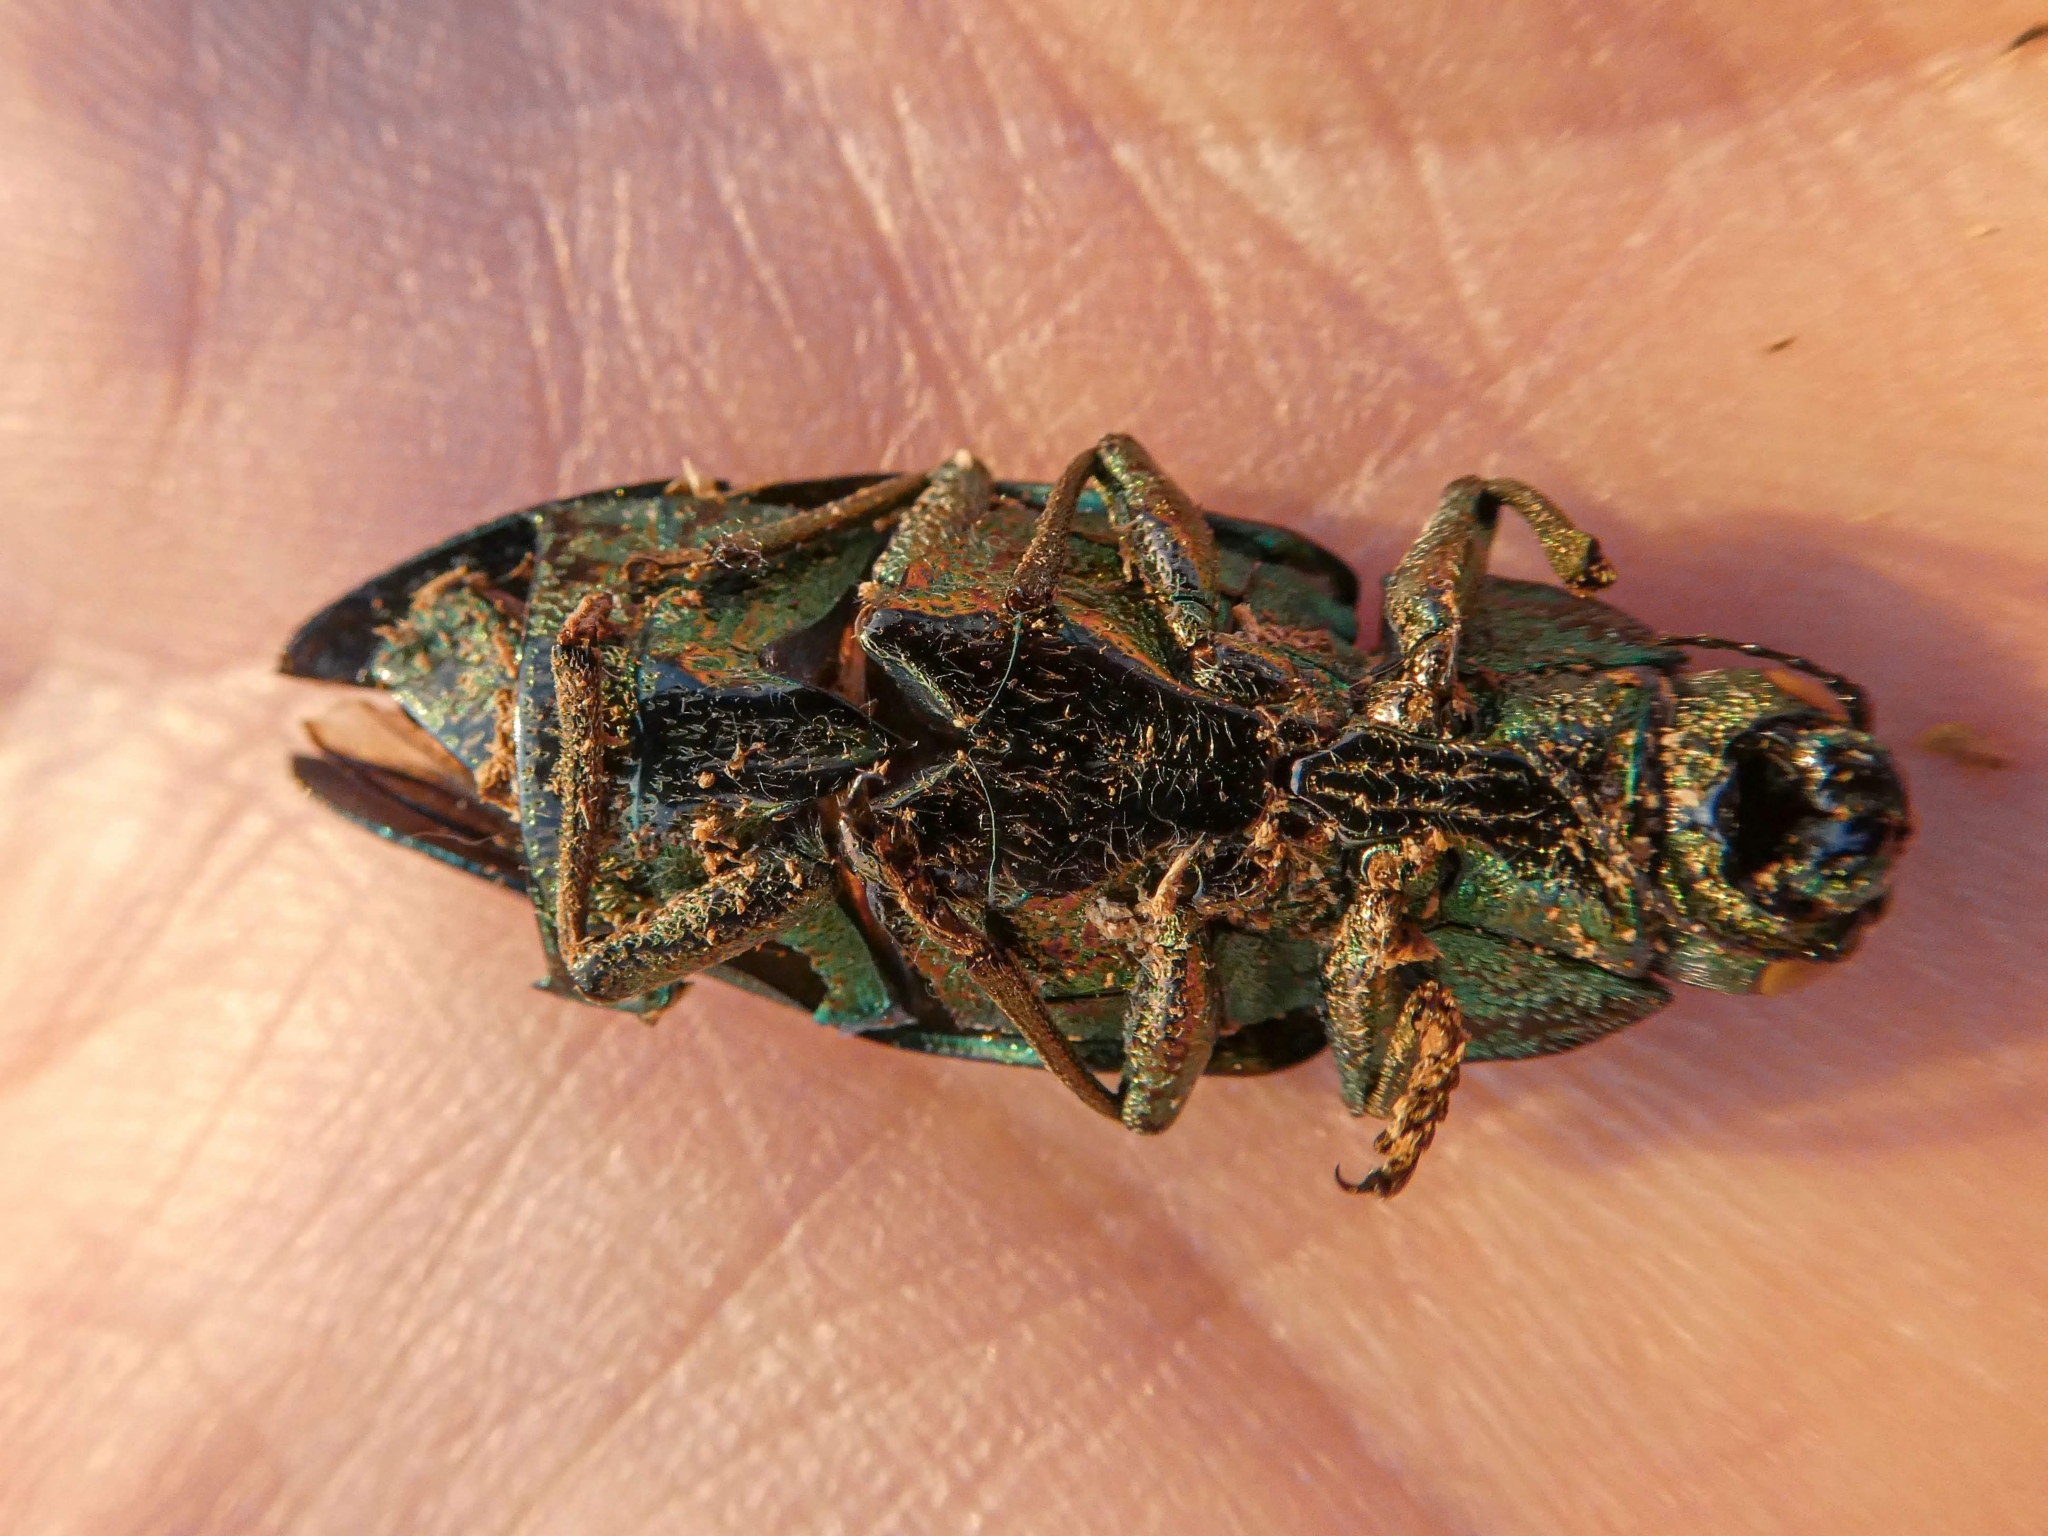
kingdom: Animalia
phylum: Arthropoda
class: Insecta
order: Coleoptera
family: Buprestidae
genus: Chalcophora
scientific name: Chalcophora mariana
